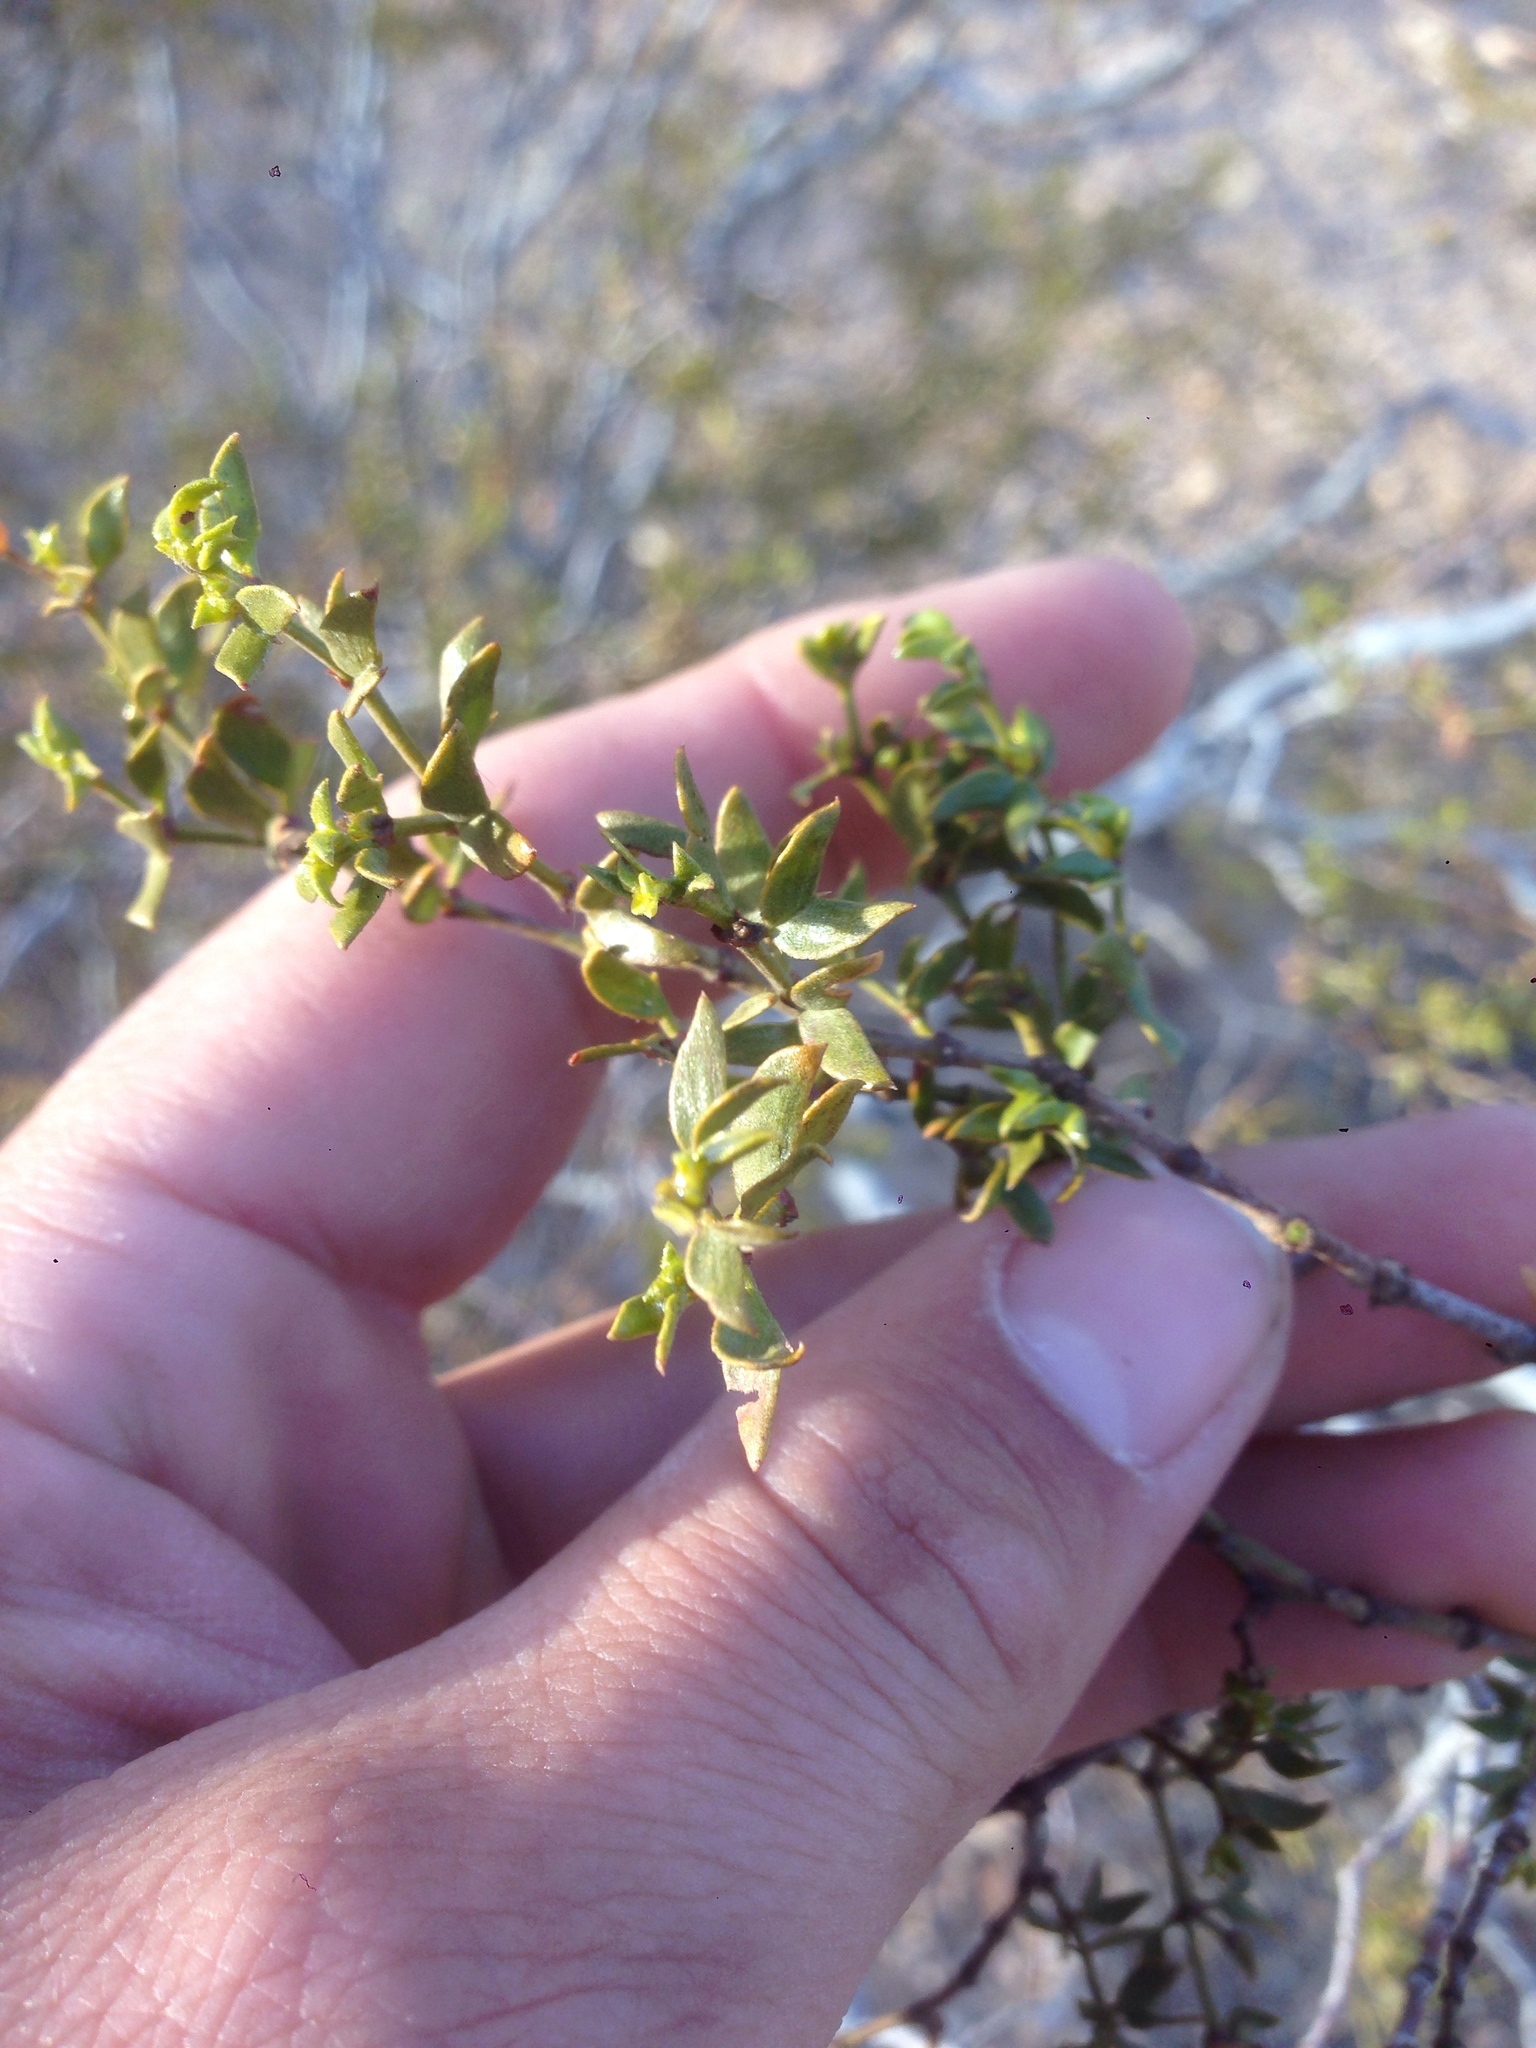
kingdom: Plantae
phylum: Tracheophyta
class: Magnoliopsida
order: Zygophyllales
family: Zygophyllaceae
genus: Larrea
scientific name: Larrea tridentata
